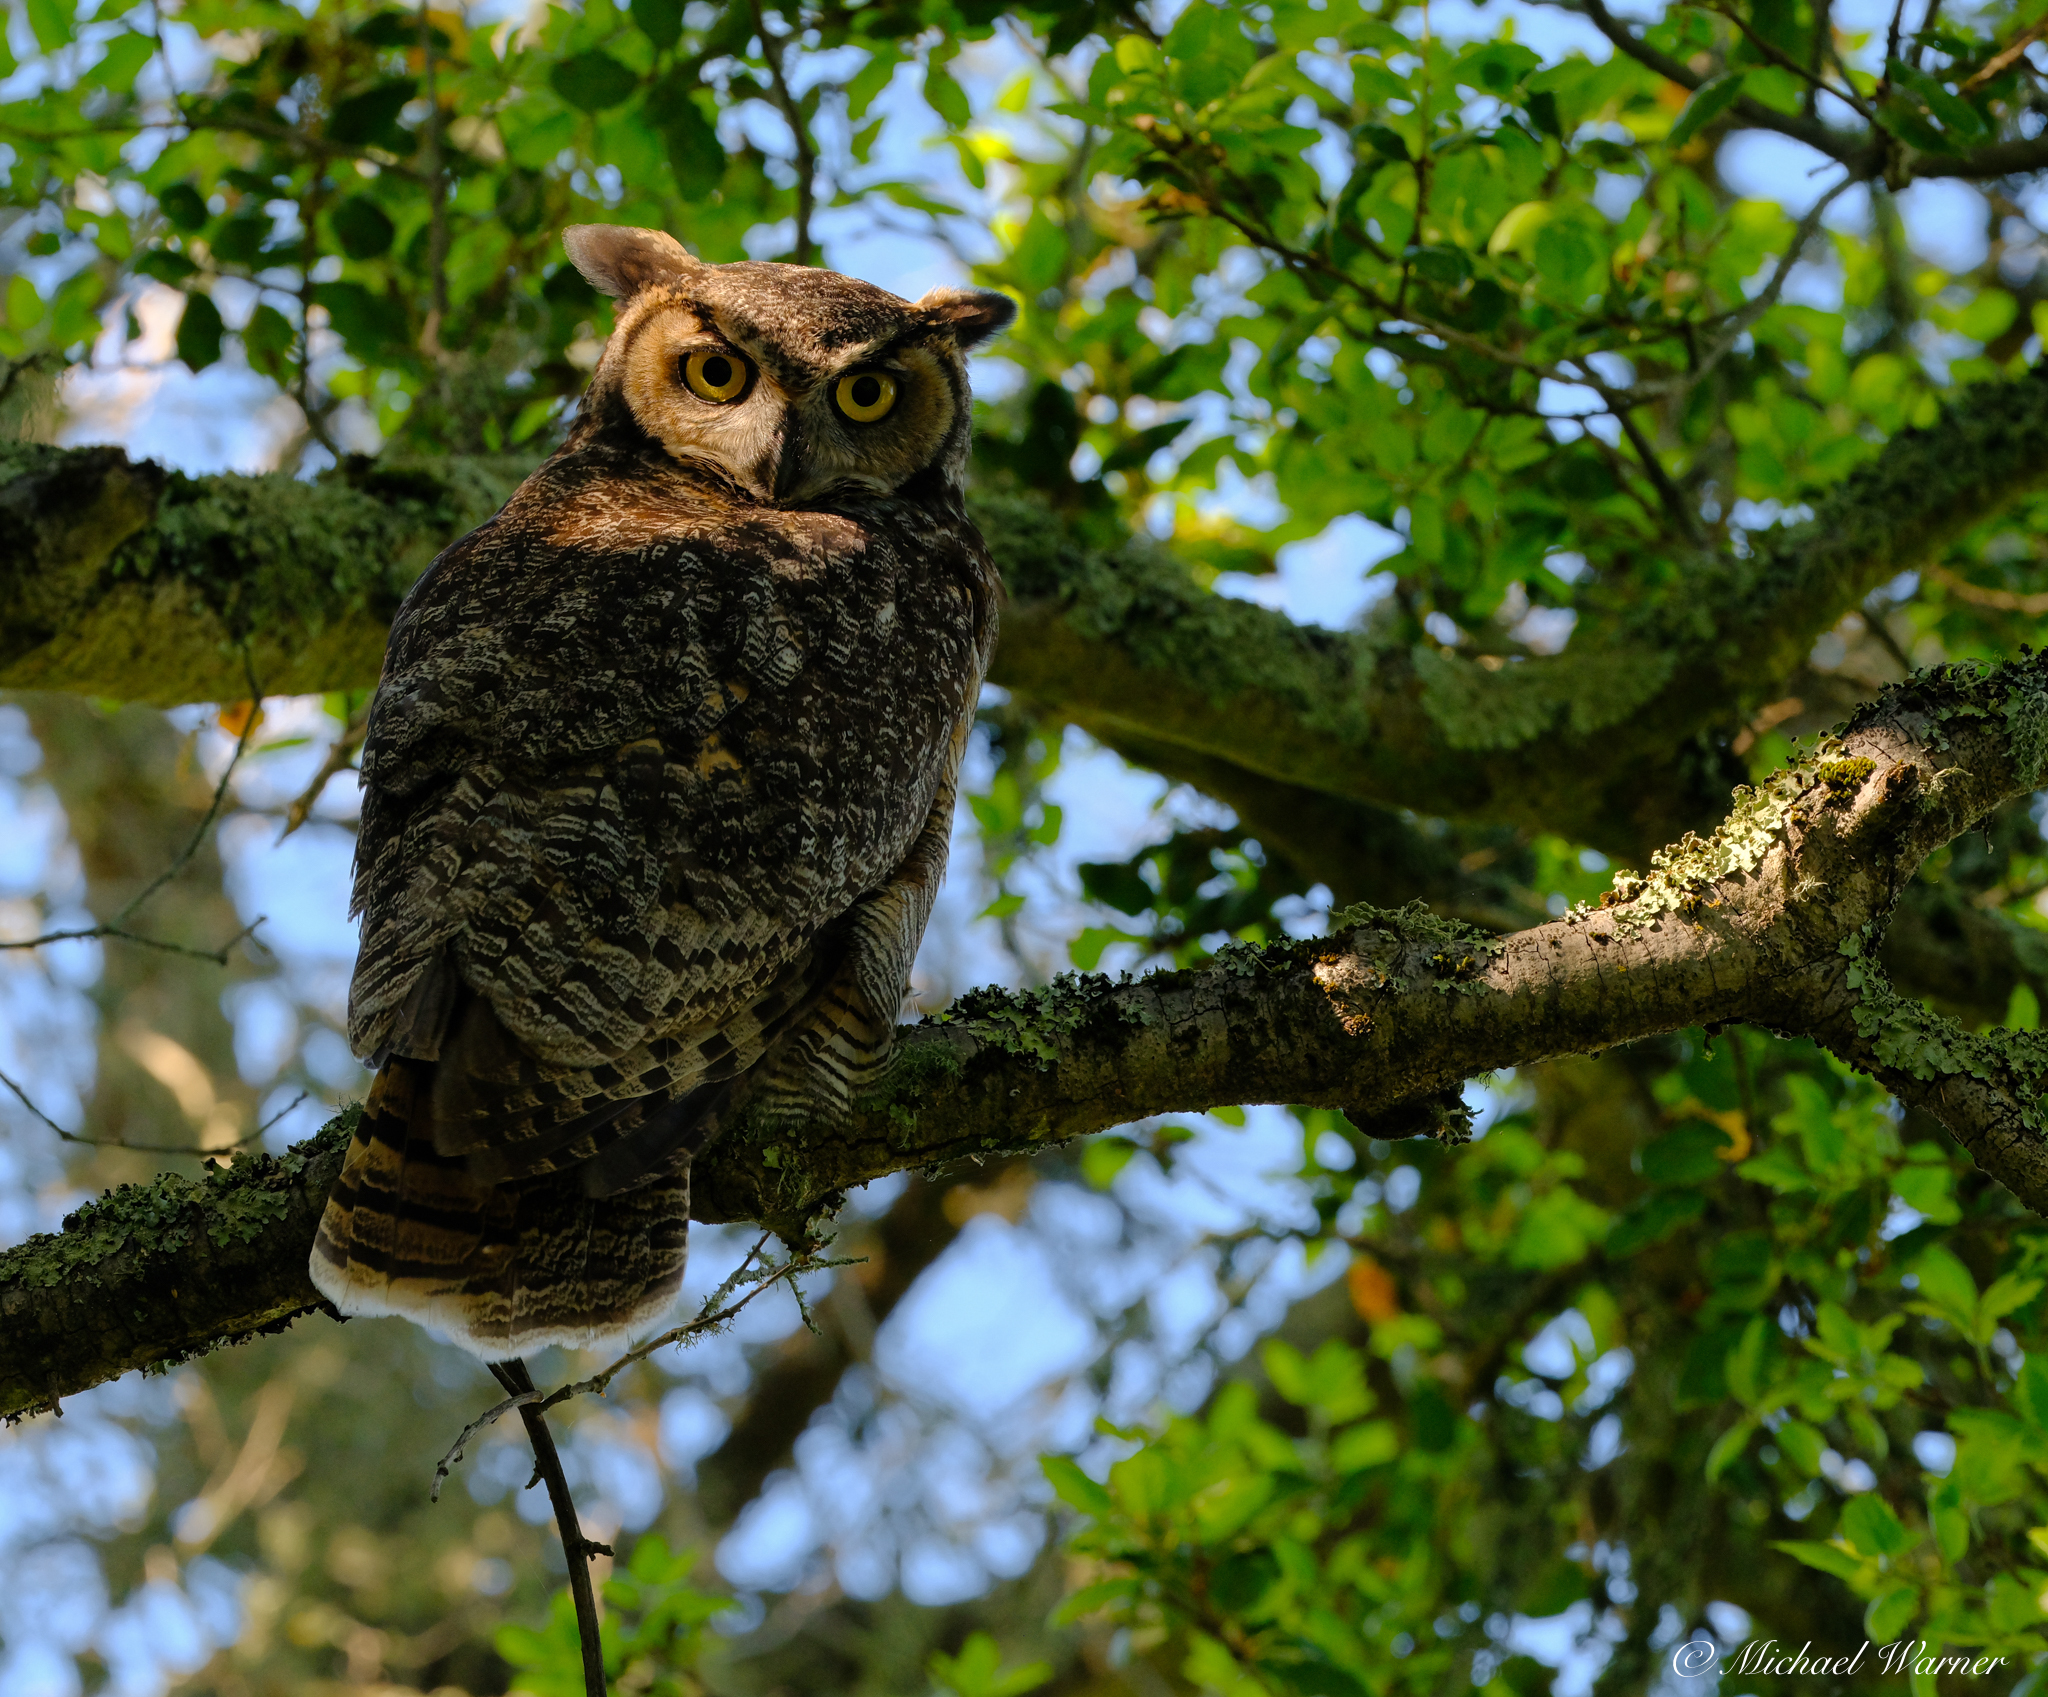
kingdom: Animalia
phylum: Chordata
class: Aves
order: Strigiformes
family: Strigidae
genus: Bubo
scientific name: Bubo virginianus
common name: Great horned owl
